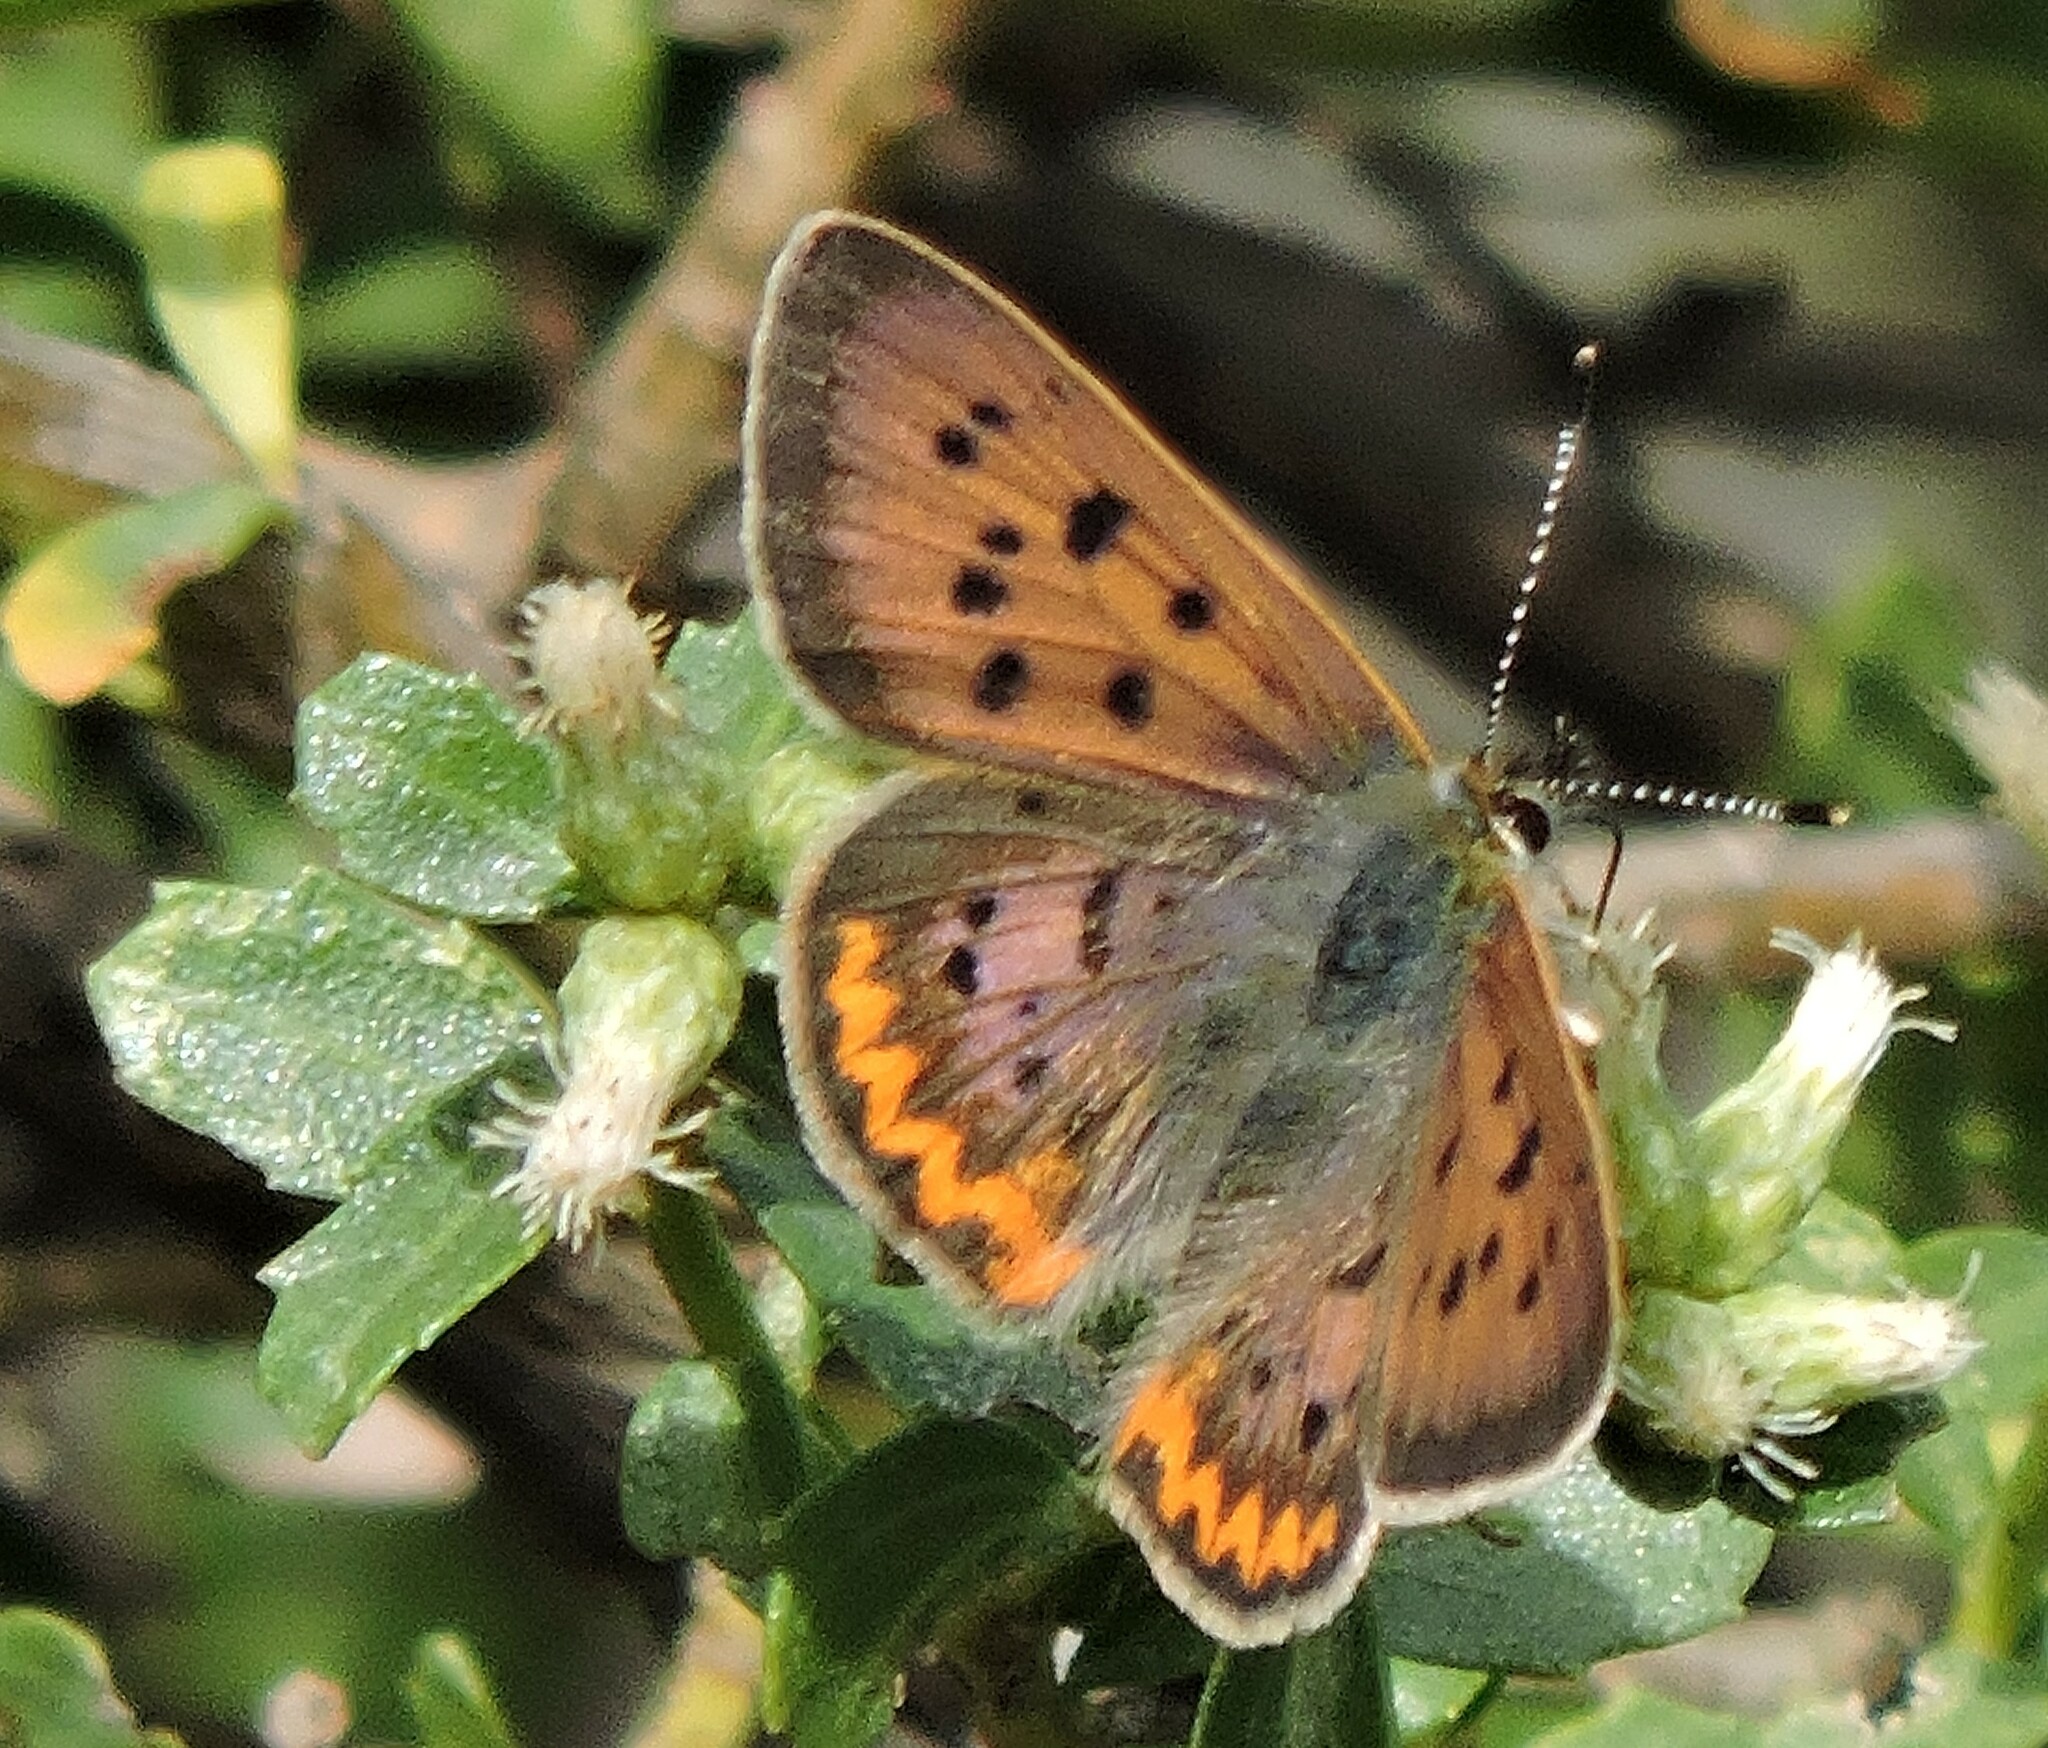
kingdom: Animalia
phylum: Arthropoda
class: Insecta
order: Lepidoptera
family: Lycaenidae
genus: Tharsalea
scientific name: Tharsalea helloides
